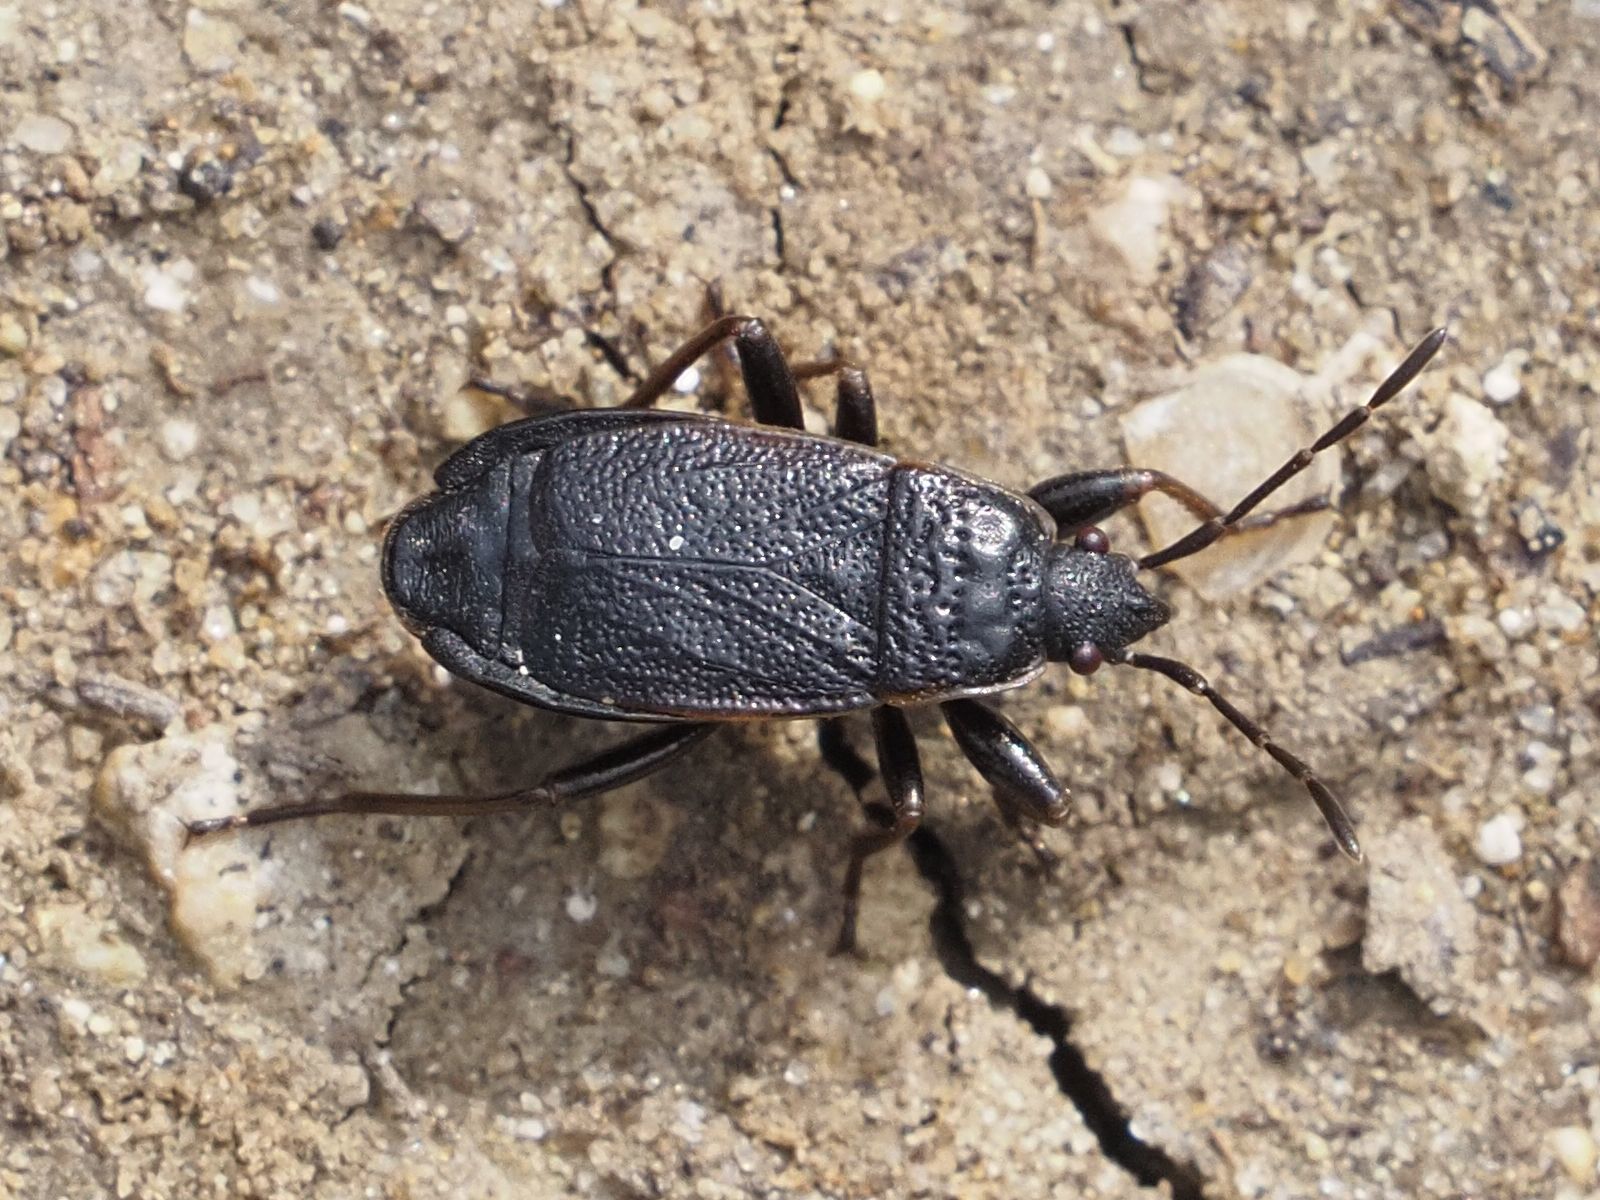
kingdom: Animalia
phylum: Arthropoda
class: Insecta
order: Hemiptera
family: Pyrrhocoridae
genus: Pyrrhocoris
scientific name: Pyrrhocoris marginatus
